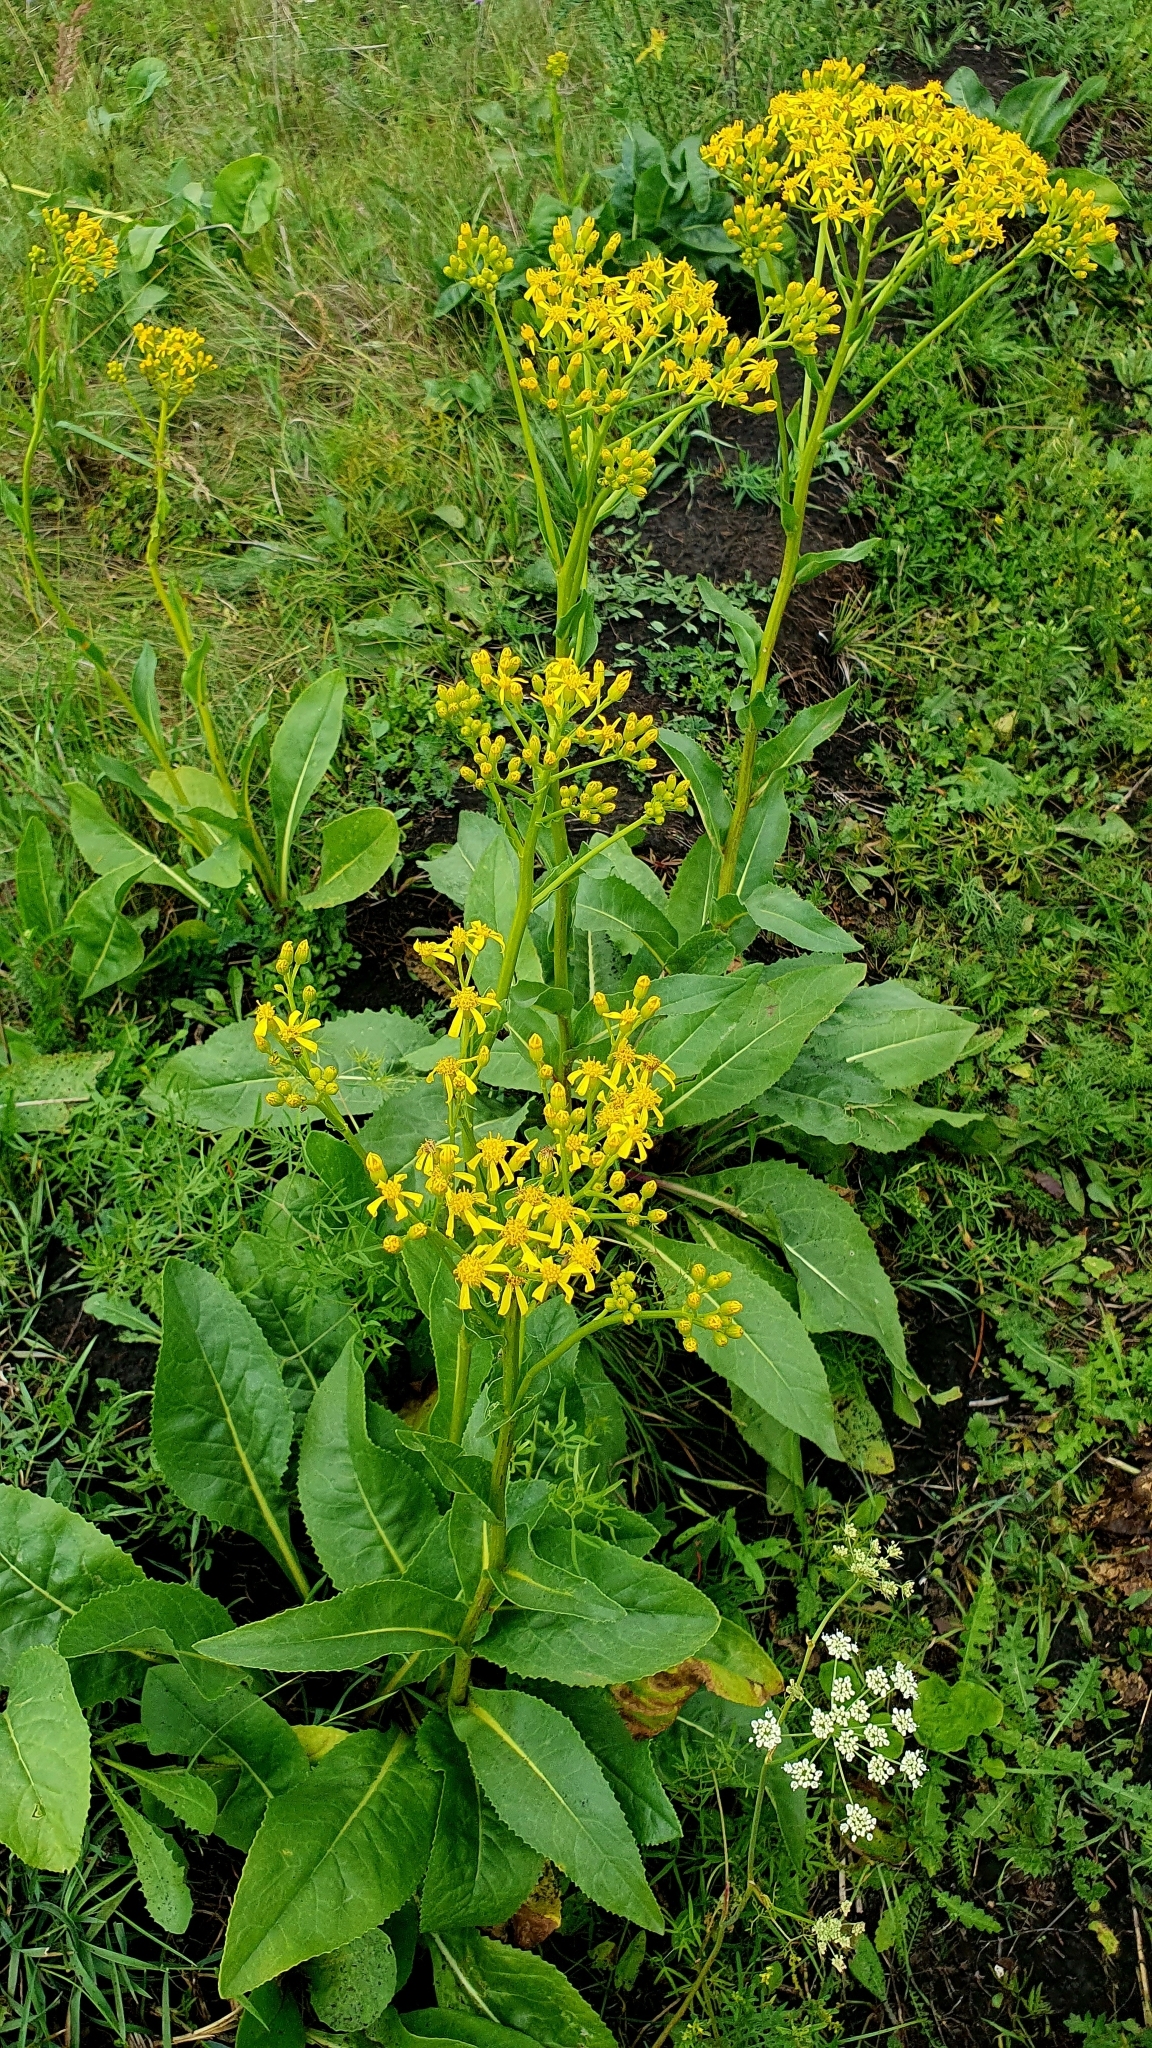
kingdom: Plantae
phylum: Tracheophyta
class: Magnoliopsida
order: Asterales
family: Asteraceae
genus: Senecio
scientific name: Senecio doria
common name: Golden ragwort
